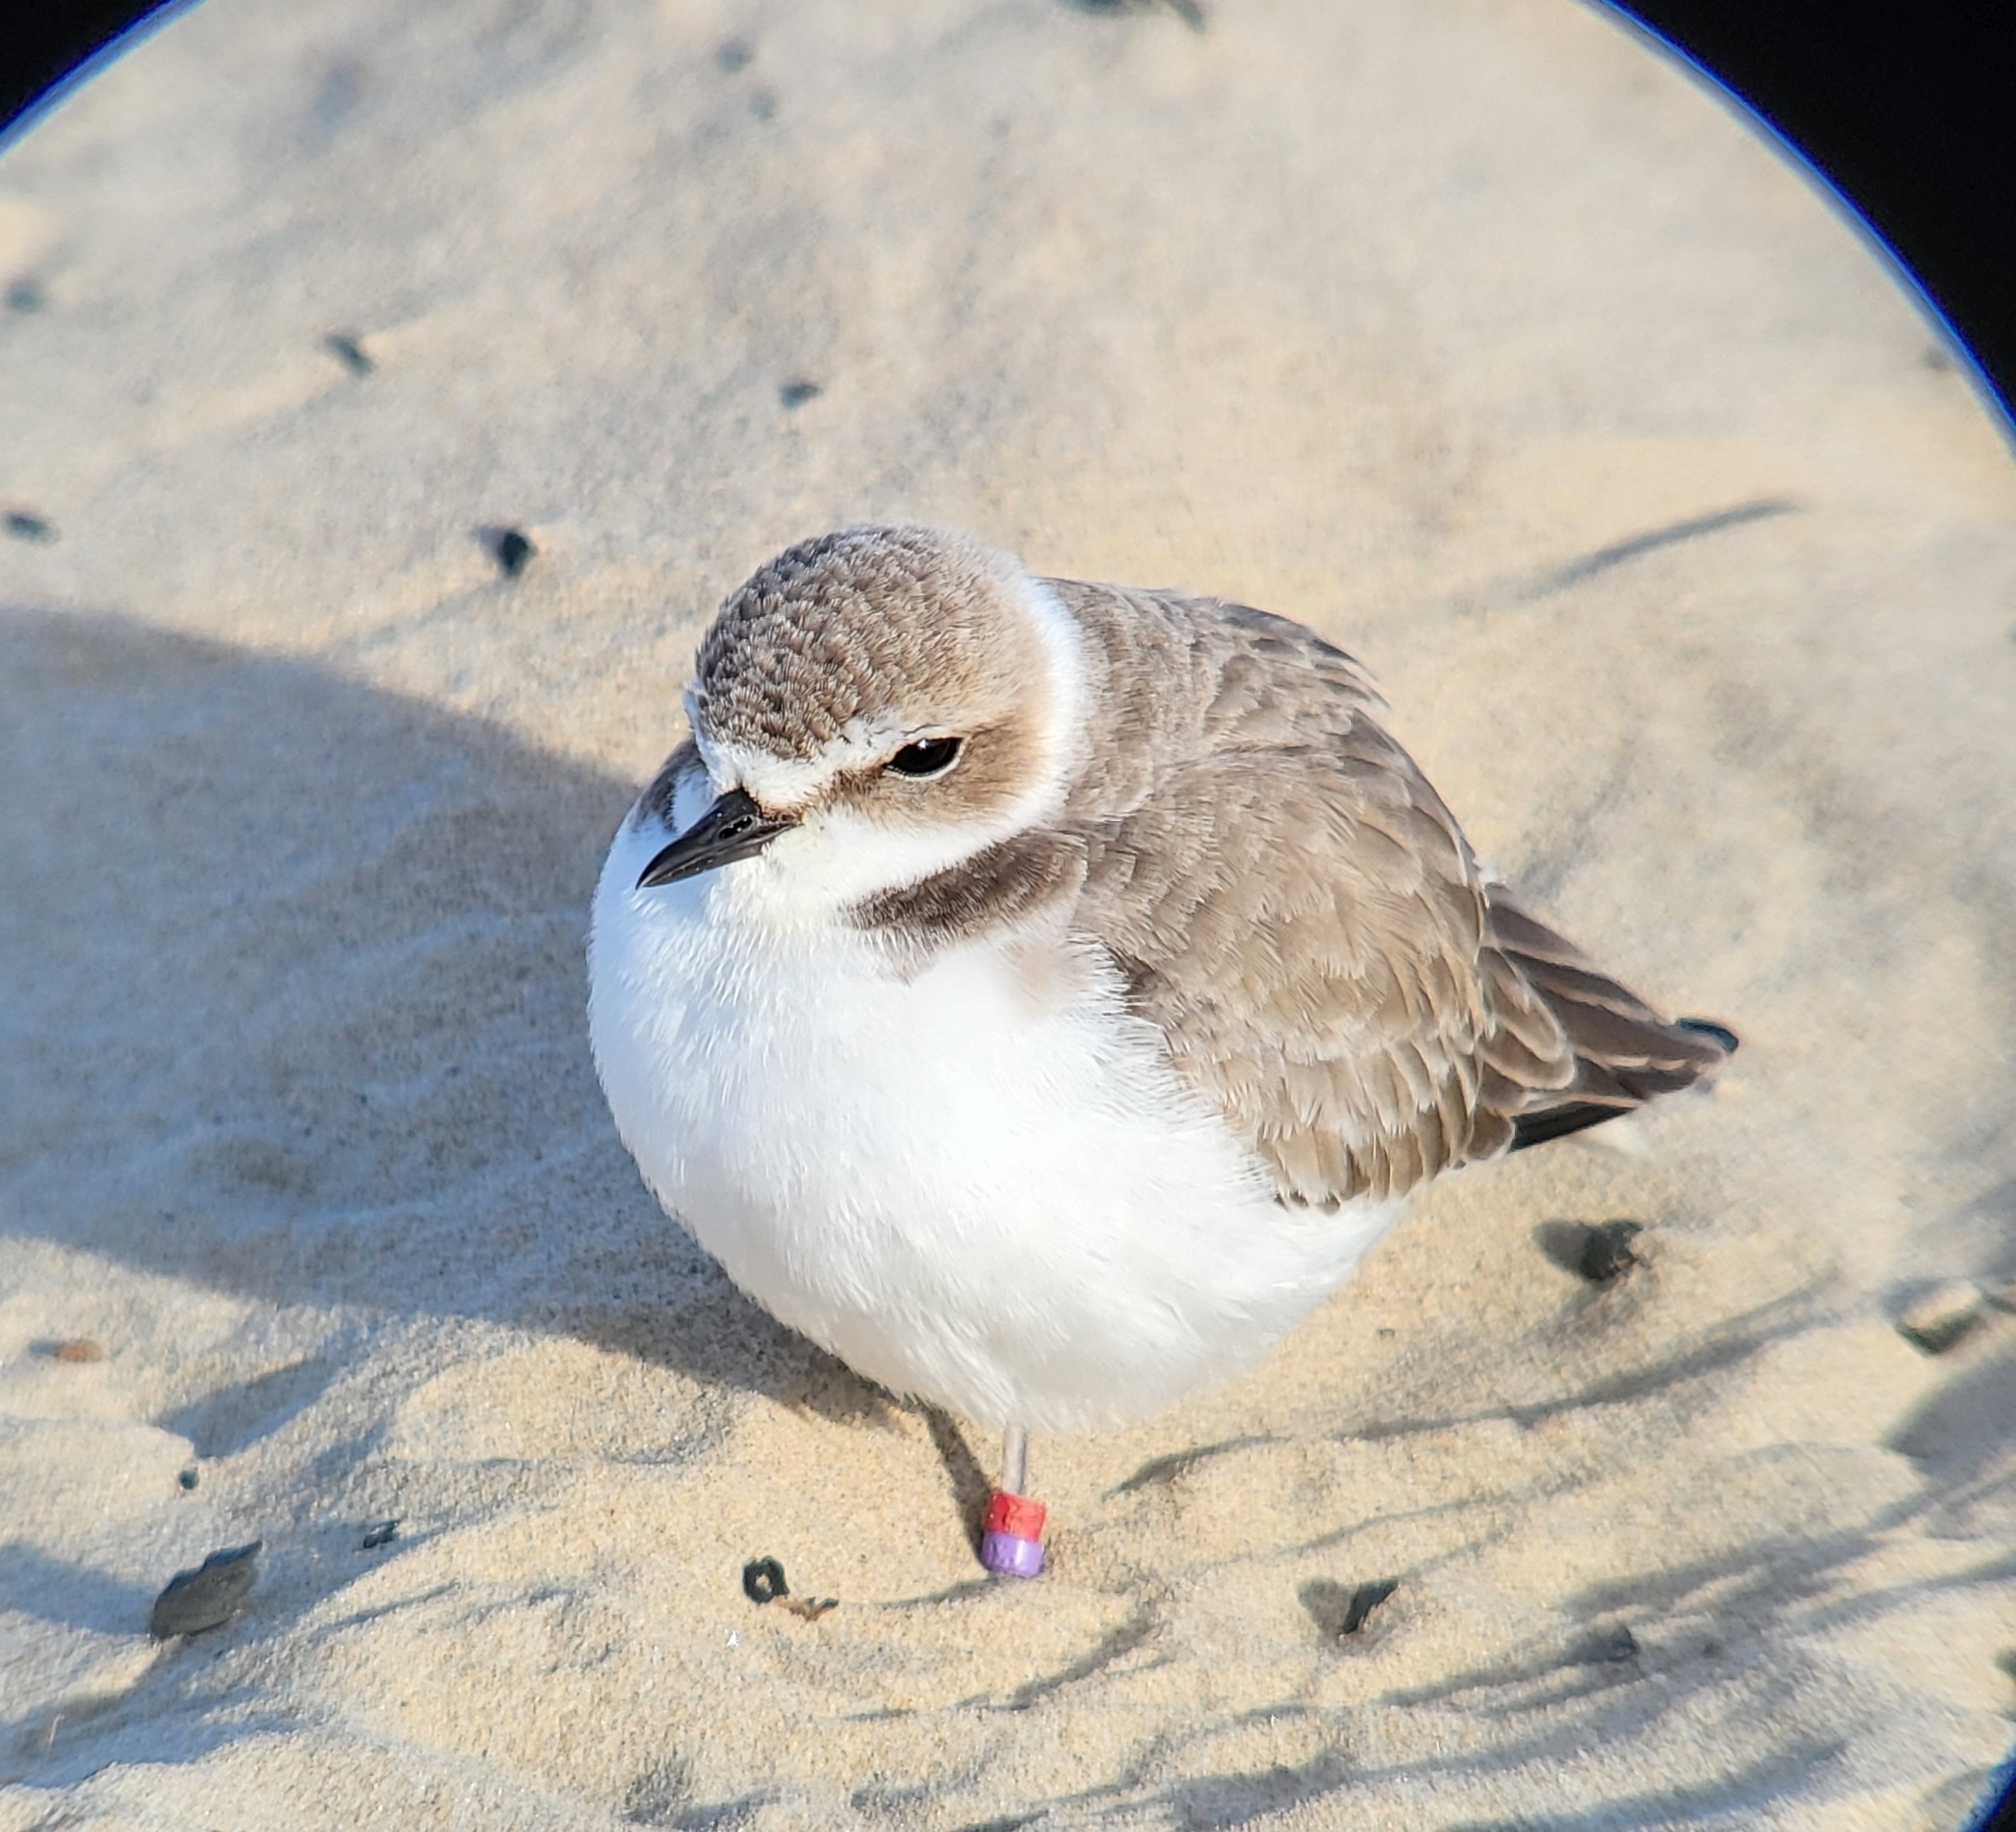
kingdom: Animalia
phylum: Chordata
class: Aves
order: Charadriiformes
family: Charadriidae
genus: Anarhynchus
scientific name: Anarhynchus
